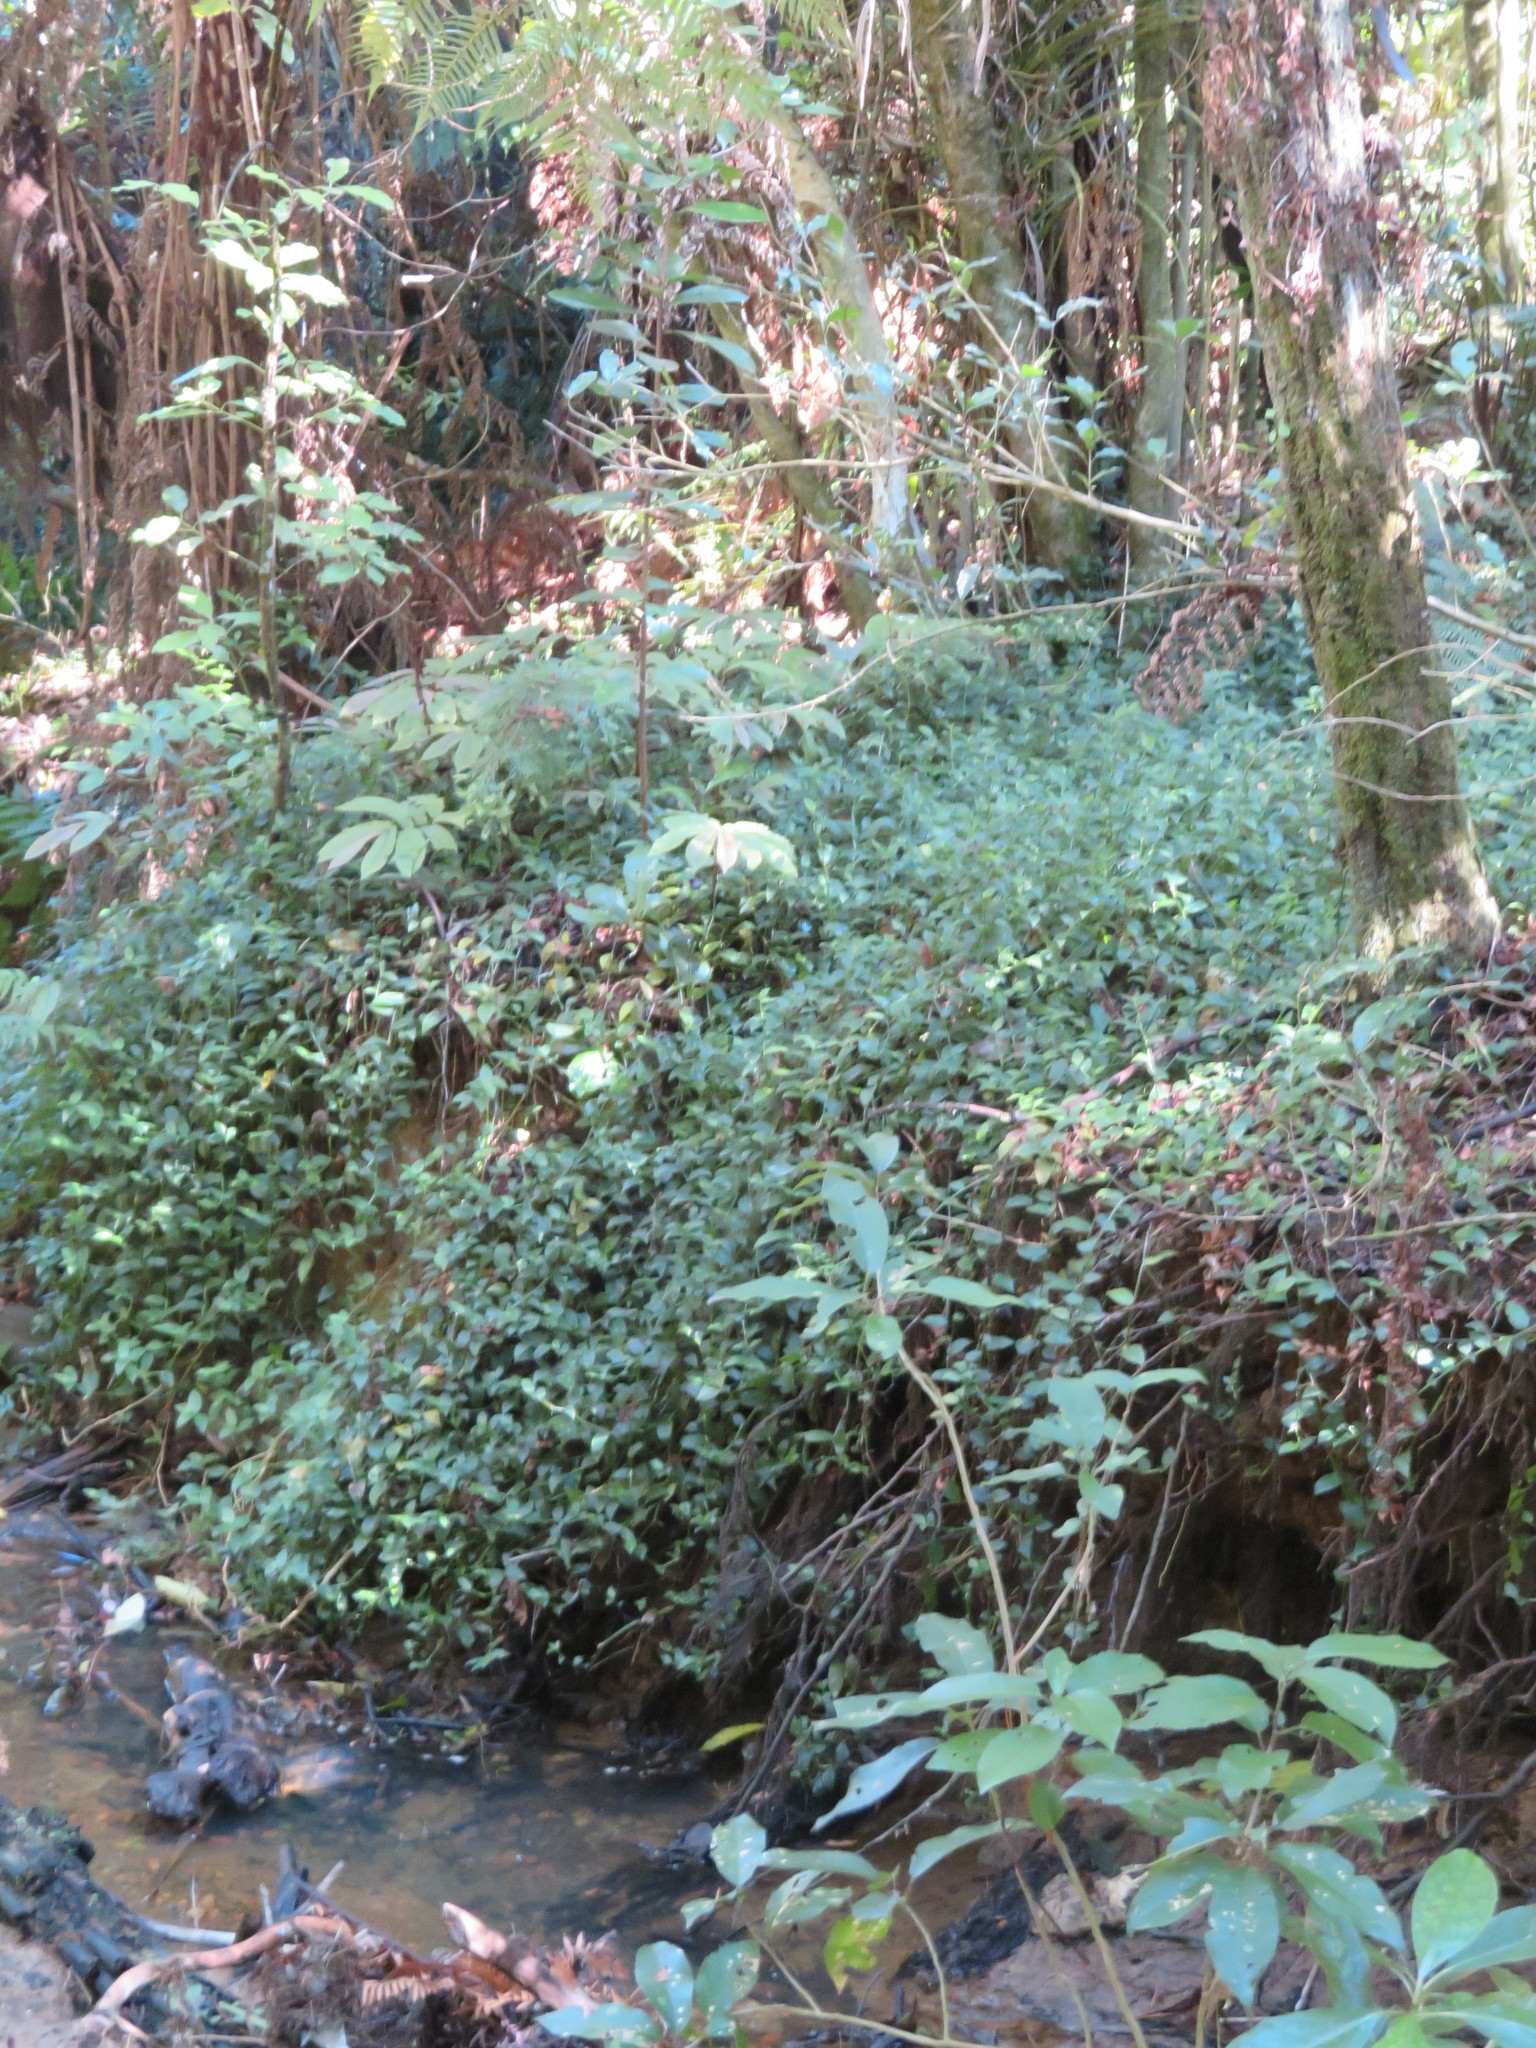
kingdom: Plantae
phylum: Tracheophyta
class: Magnoliopsida
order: Rosales
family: Urticaceae
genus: Elatostema
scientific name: Elatostema rugosum
